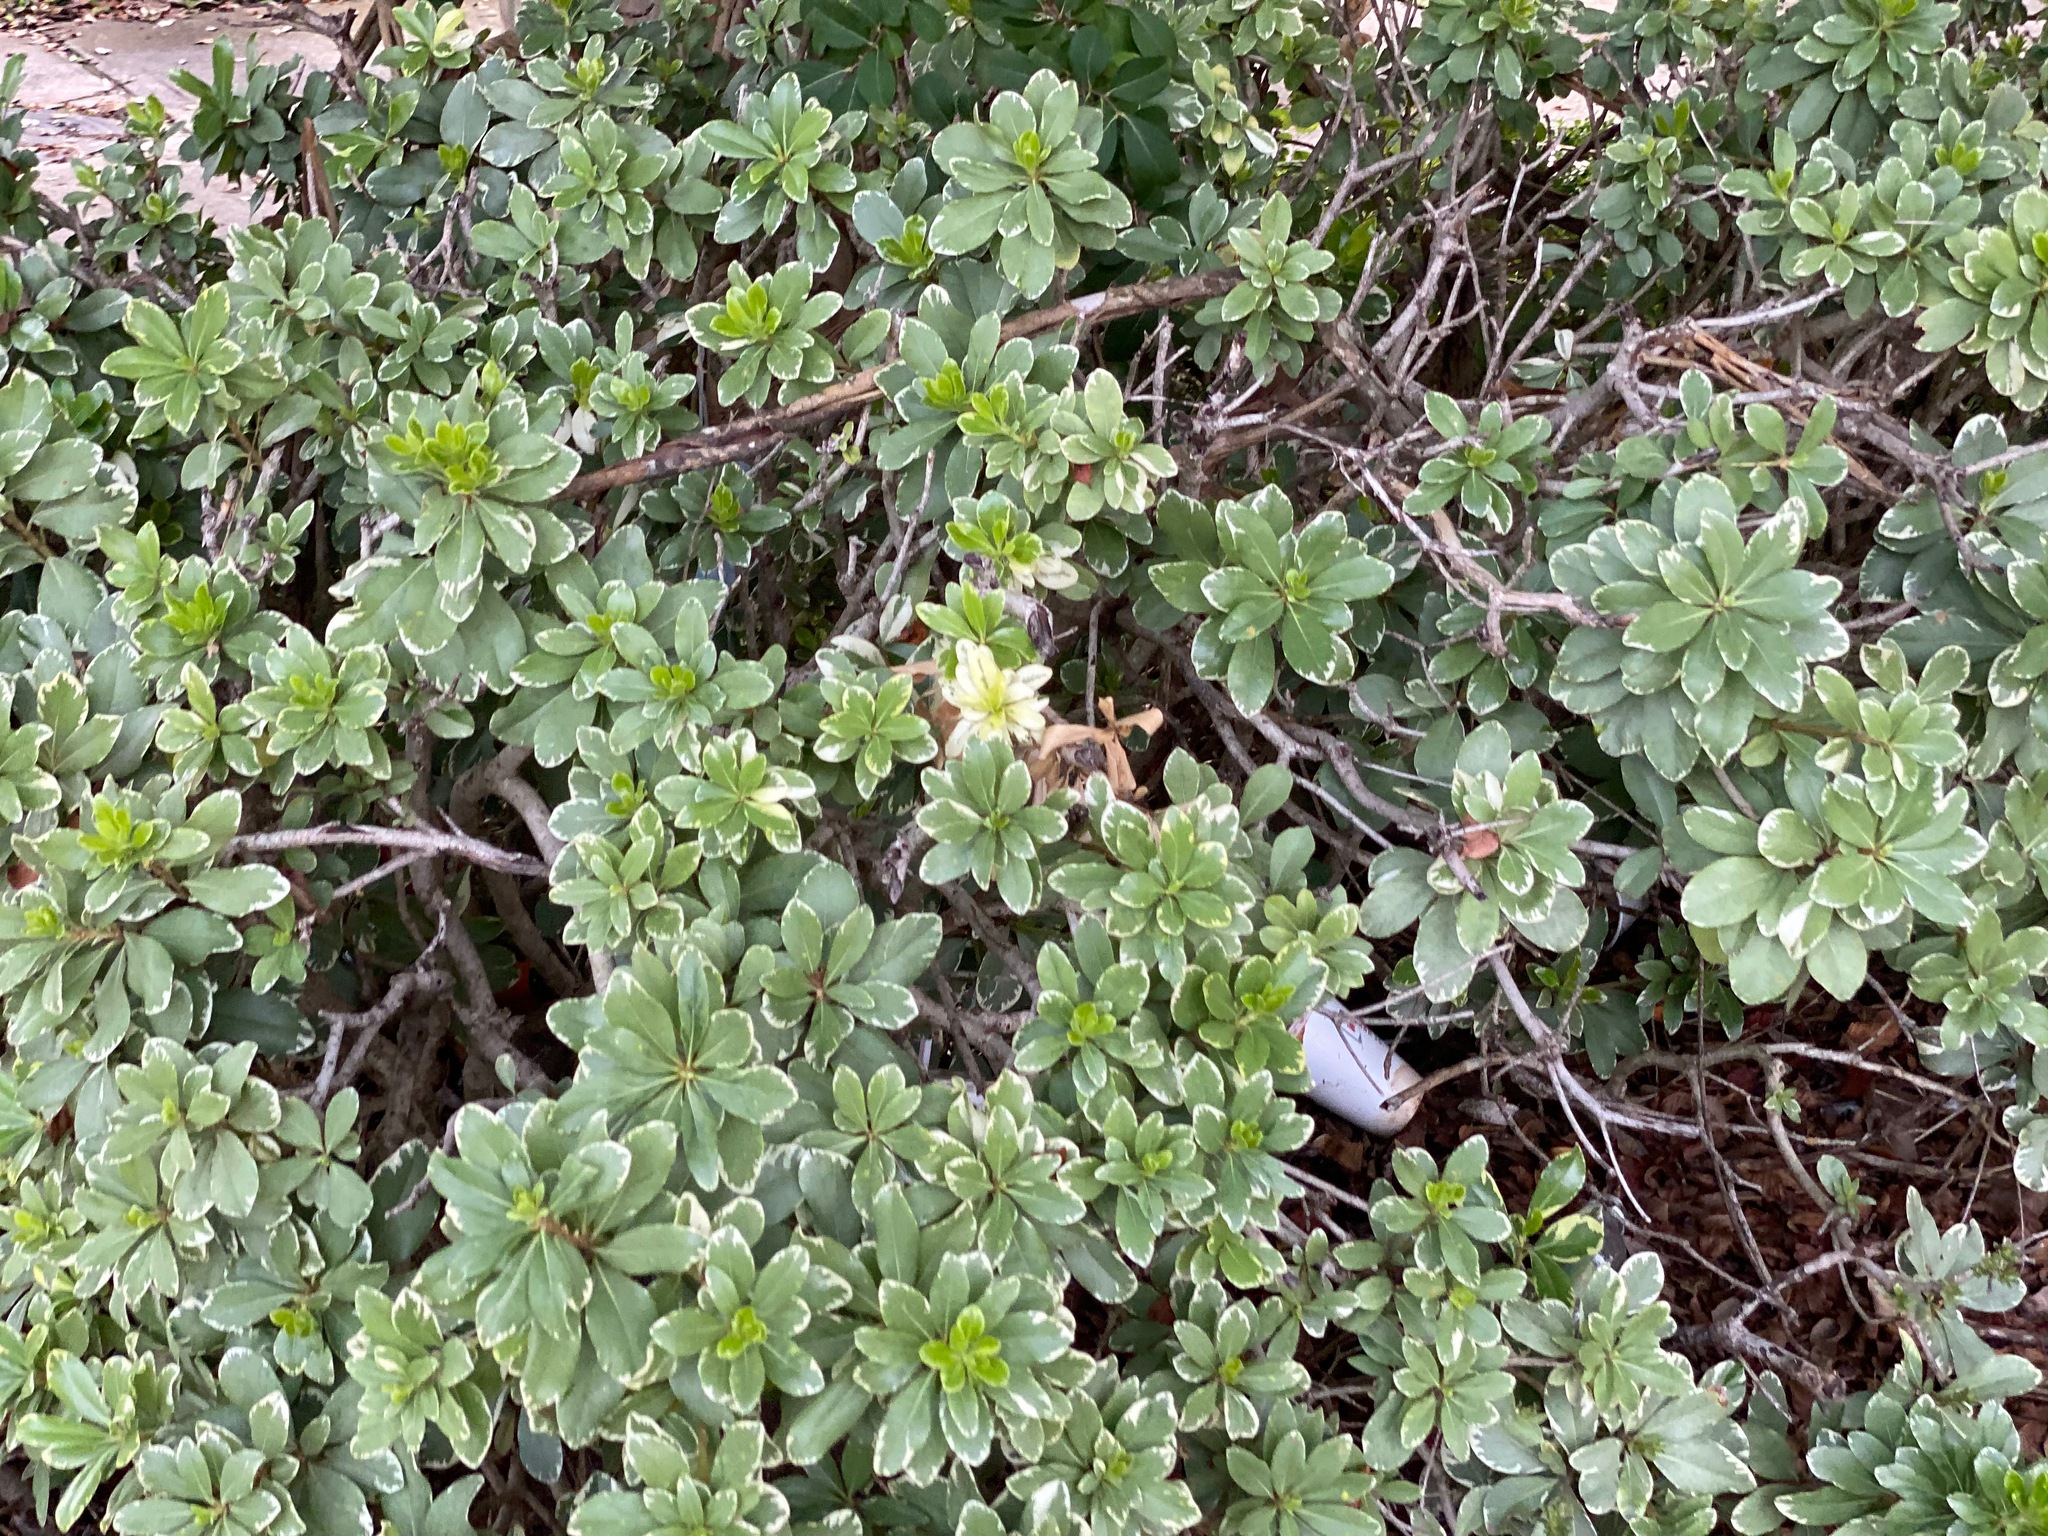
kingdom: Plantae
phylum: Tracheophyta
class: Magnoliopsida
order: Apiales
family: Pittosporaceae
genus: Pittosporum
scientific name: Pittosporum tobira
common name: Japanese cheesewood
